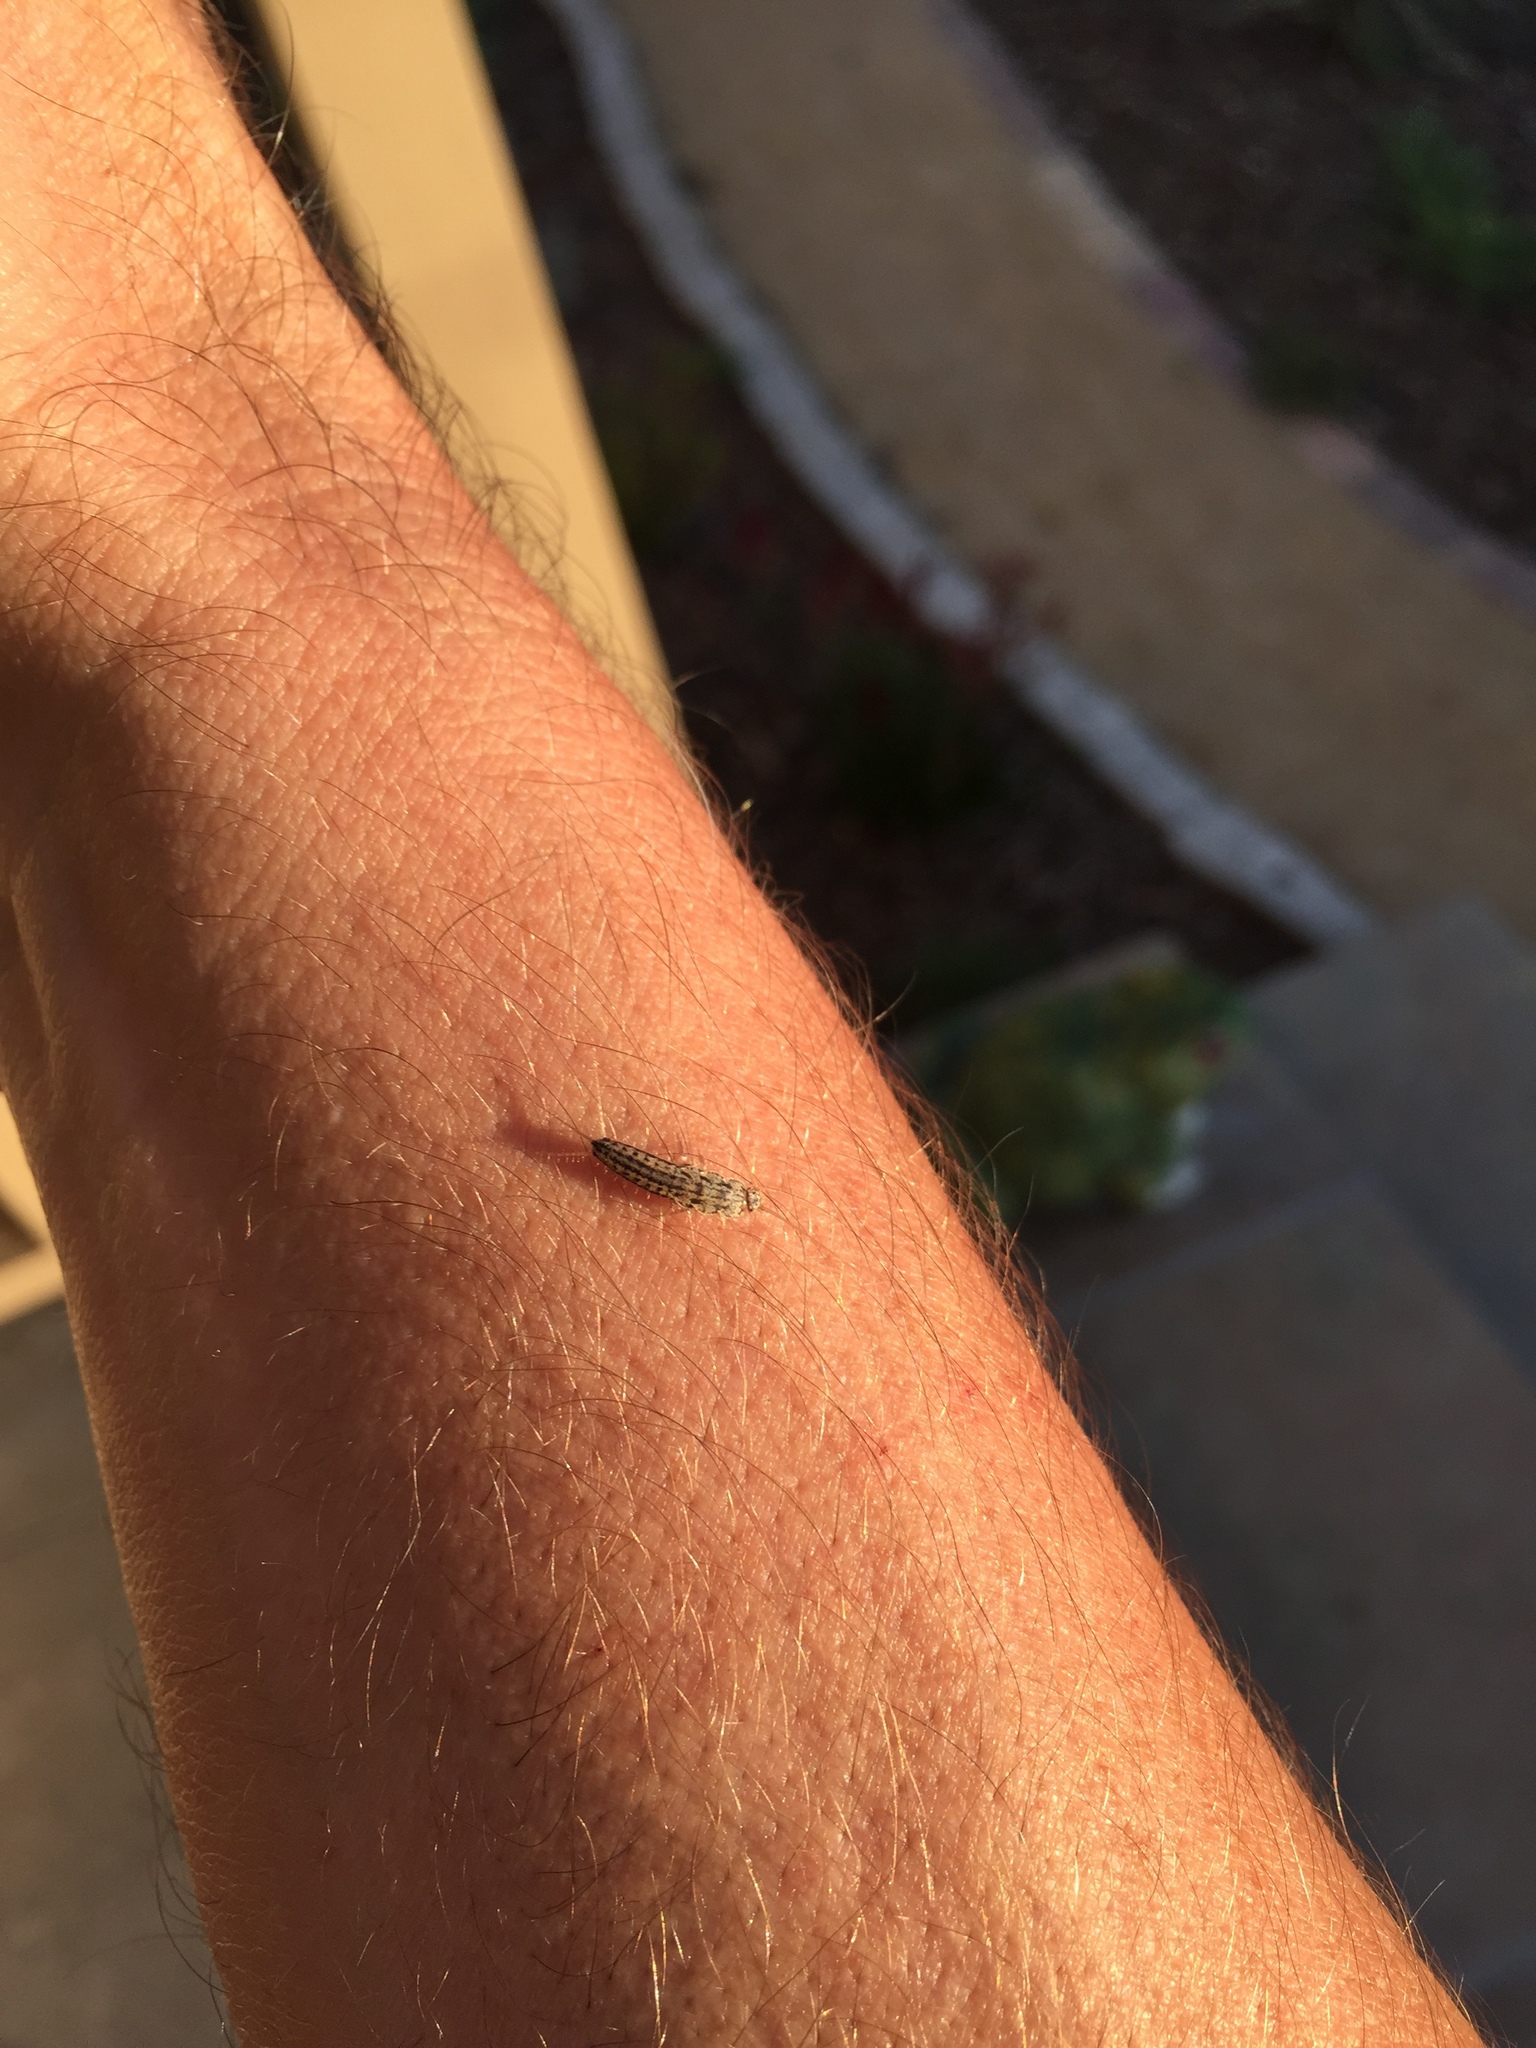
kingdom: Animalia
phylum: Arthropoda
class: Insecta
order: Zygentoma
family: Lepismatidae
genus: Ctenolepisma
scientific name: Ctenolepisma lineata
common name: Four-lined silverfish
